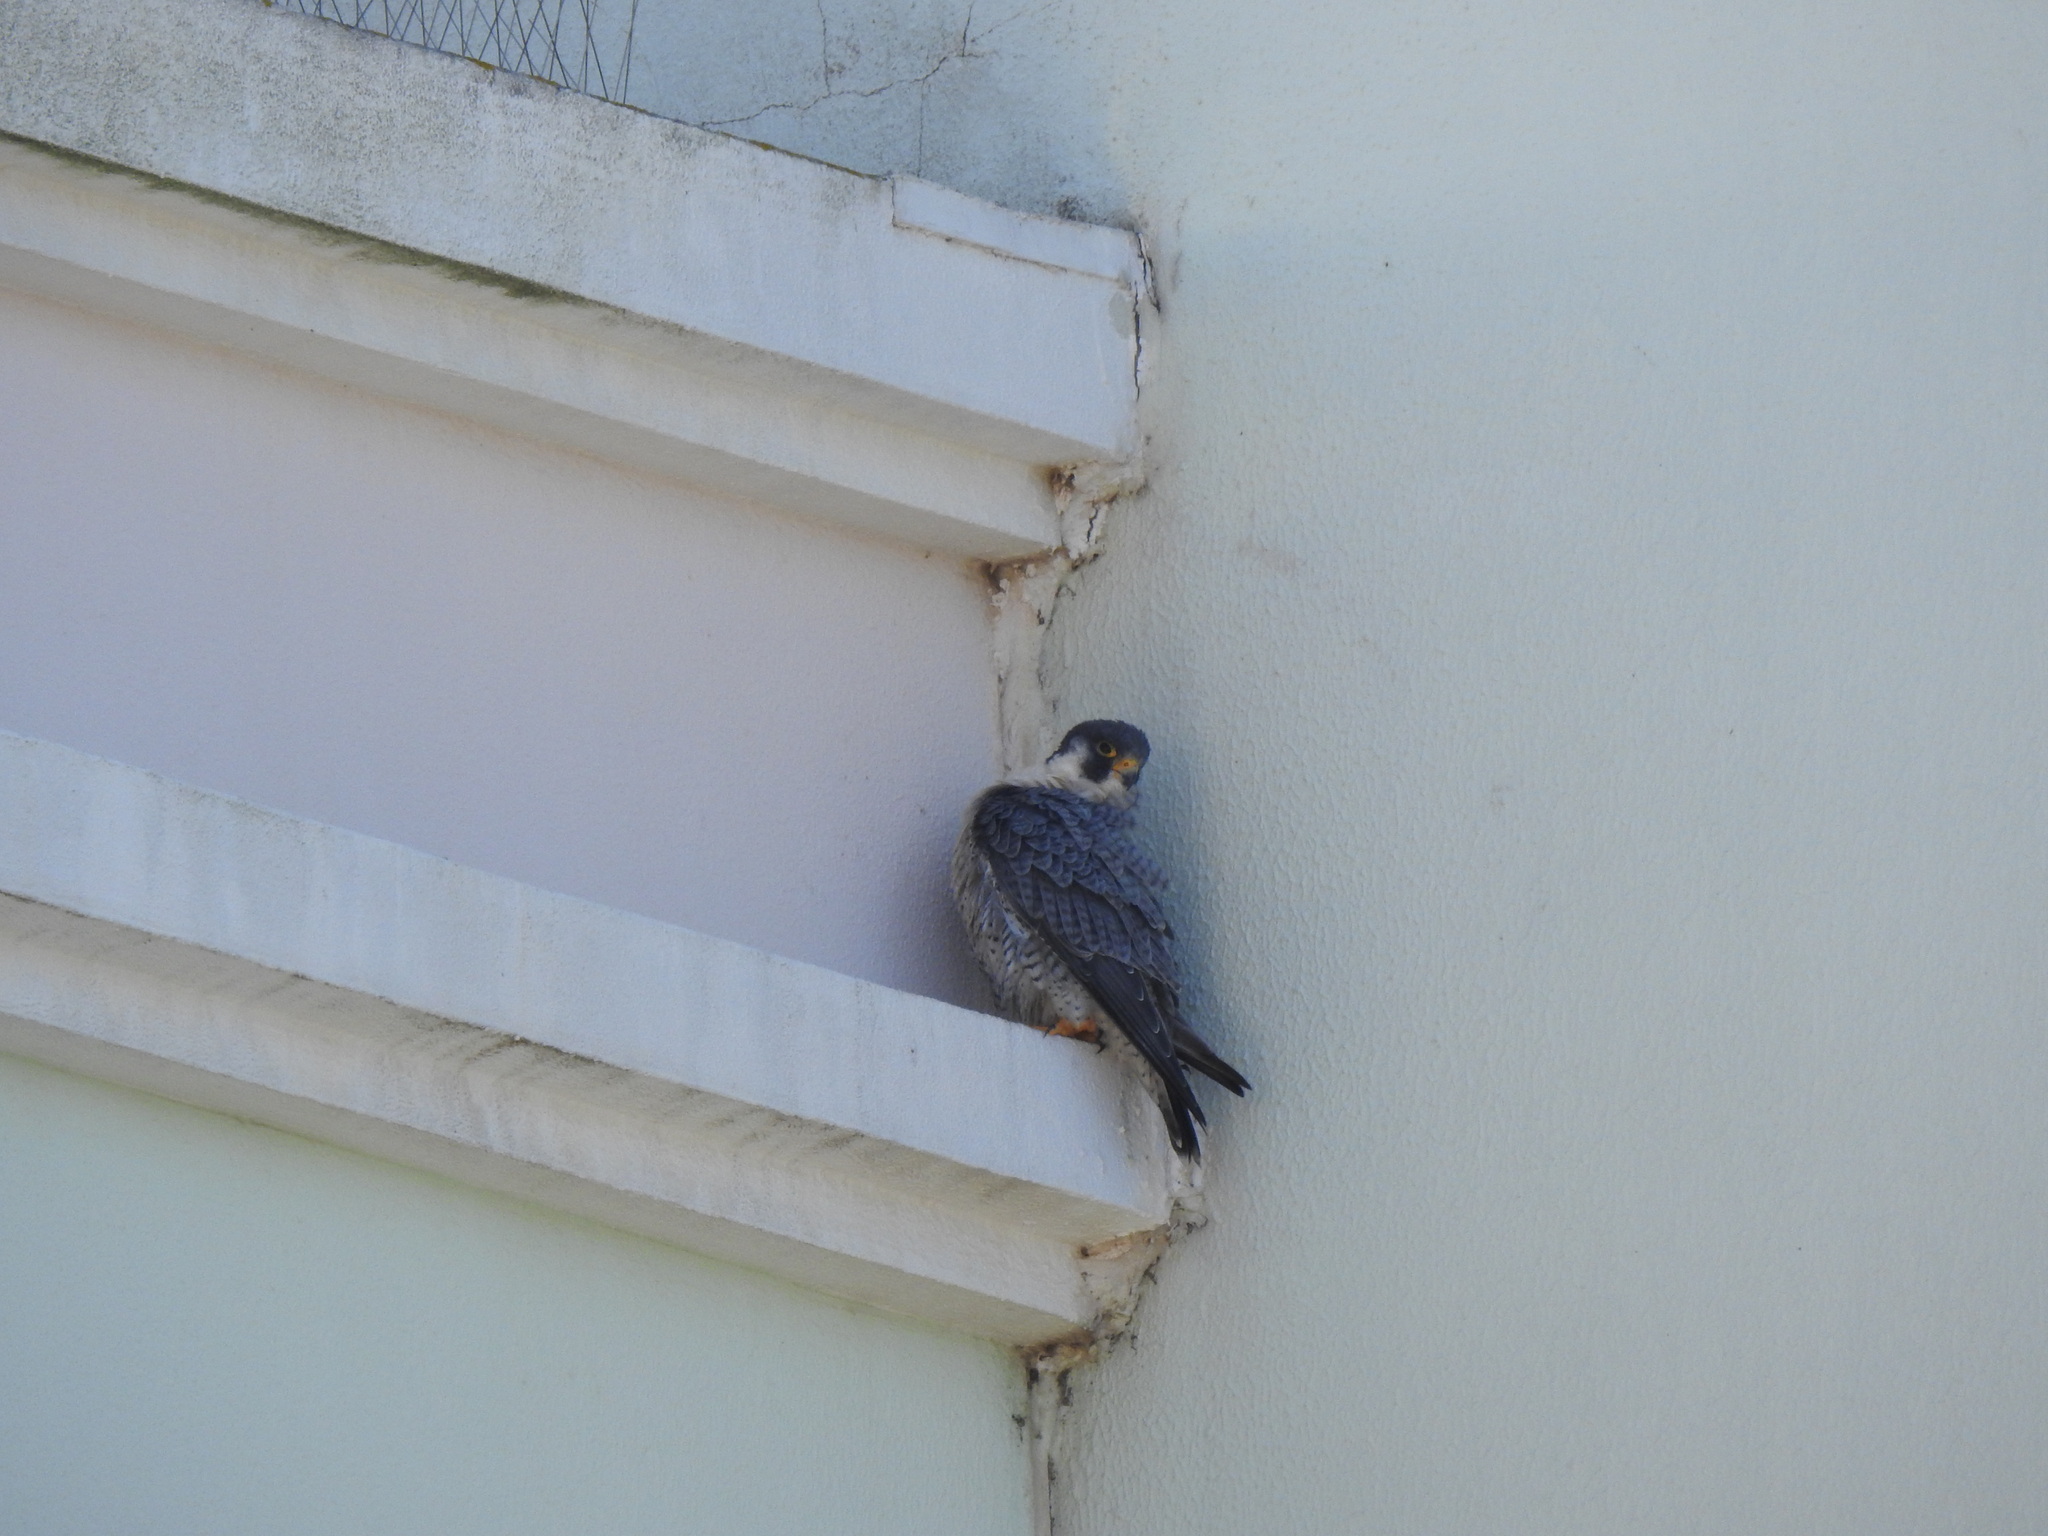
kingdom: Animalia
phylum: Chordata
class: Aves
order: Falconiformes
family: Falconidae
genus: Falco
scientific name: Falco peregrinus
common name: Peregrine falcon
